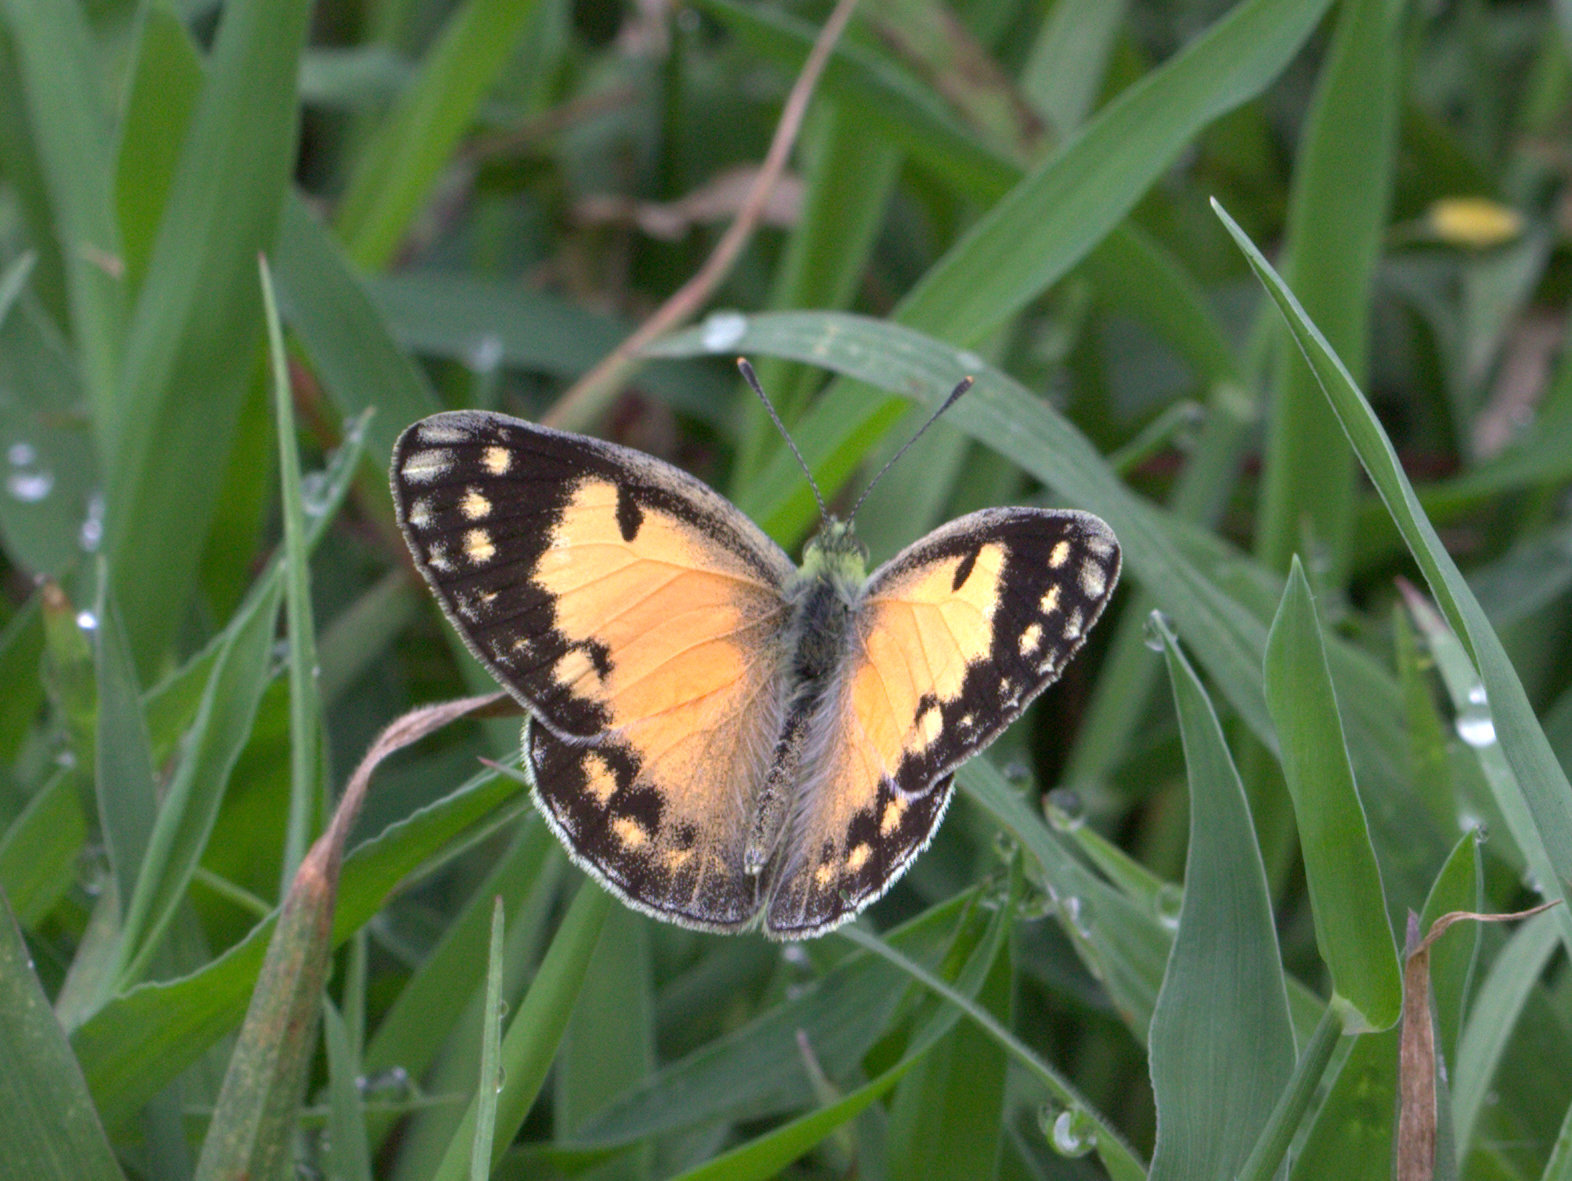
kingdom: Animalia
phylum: Arthropoda
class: Insecta
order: Lepidoptera
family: Pieridae
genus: Colotis
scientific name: Colotis amata
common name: Small salmon arab
